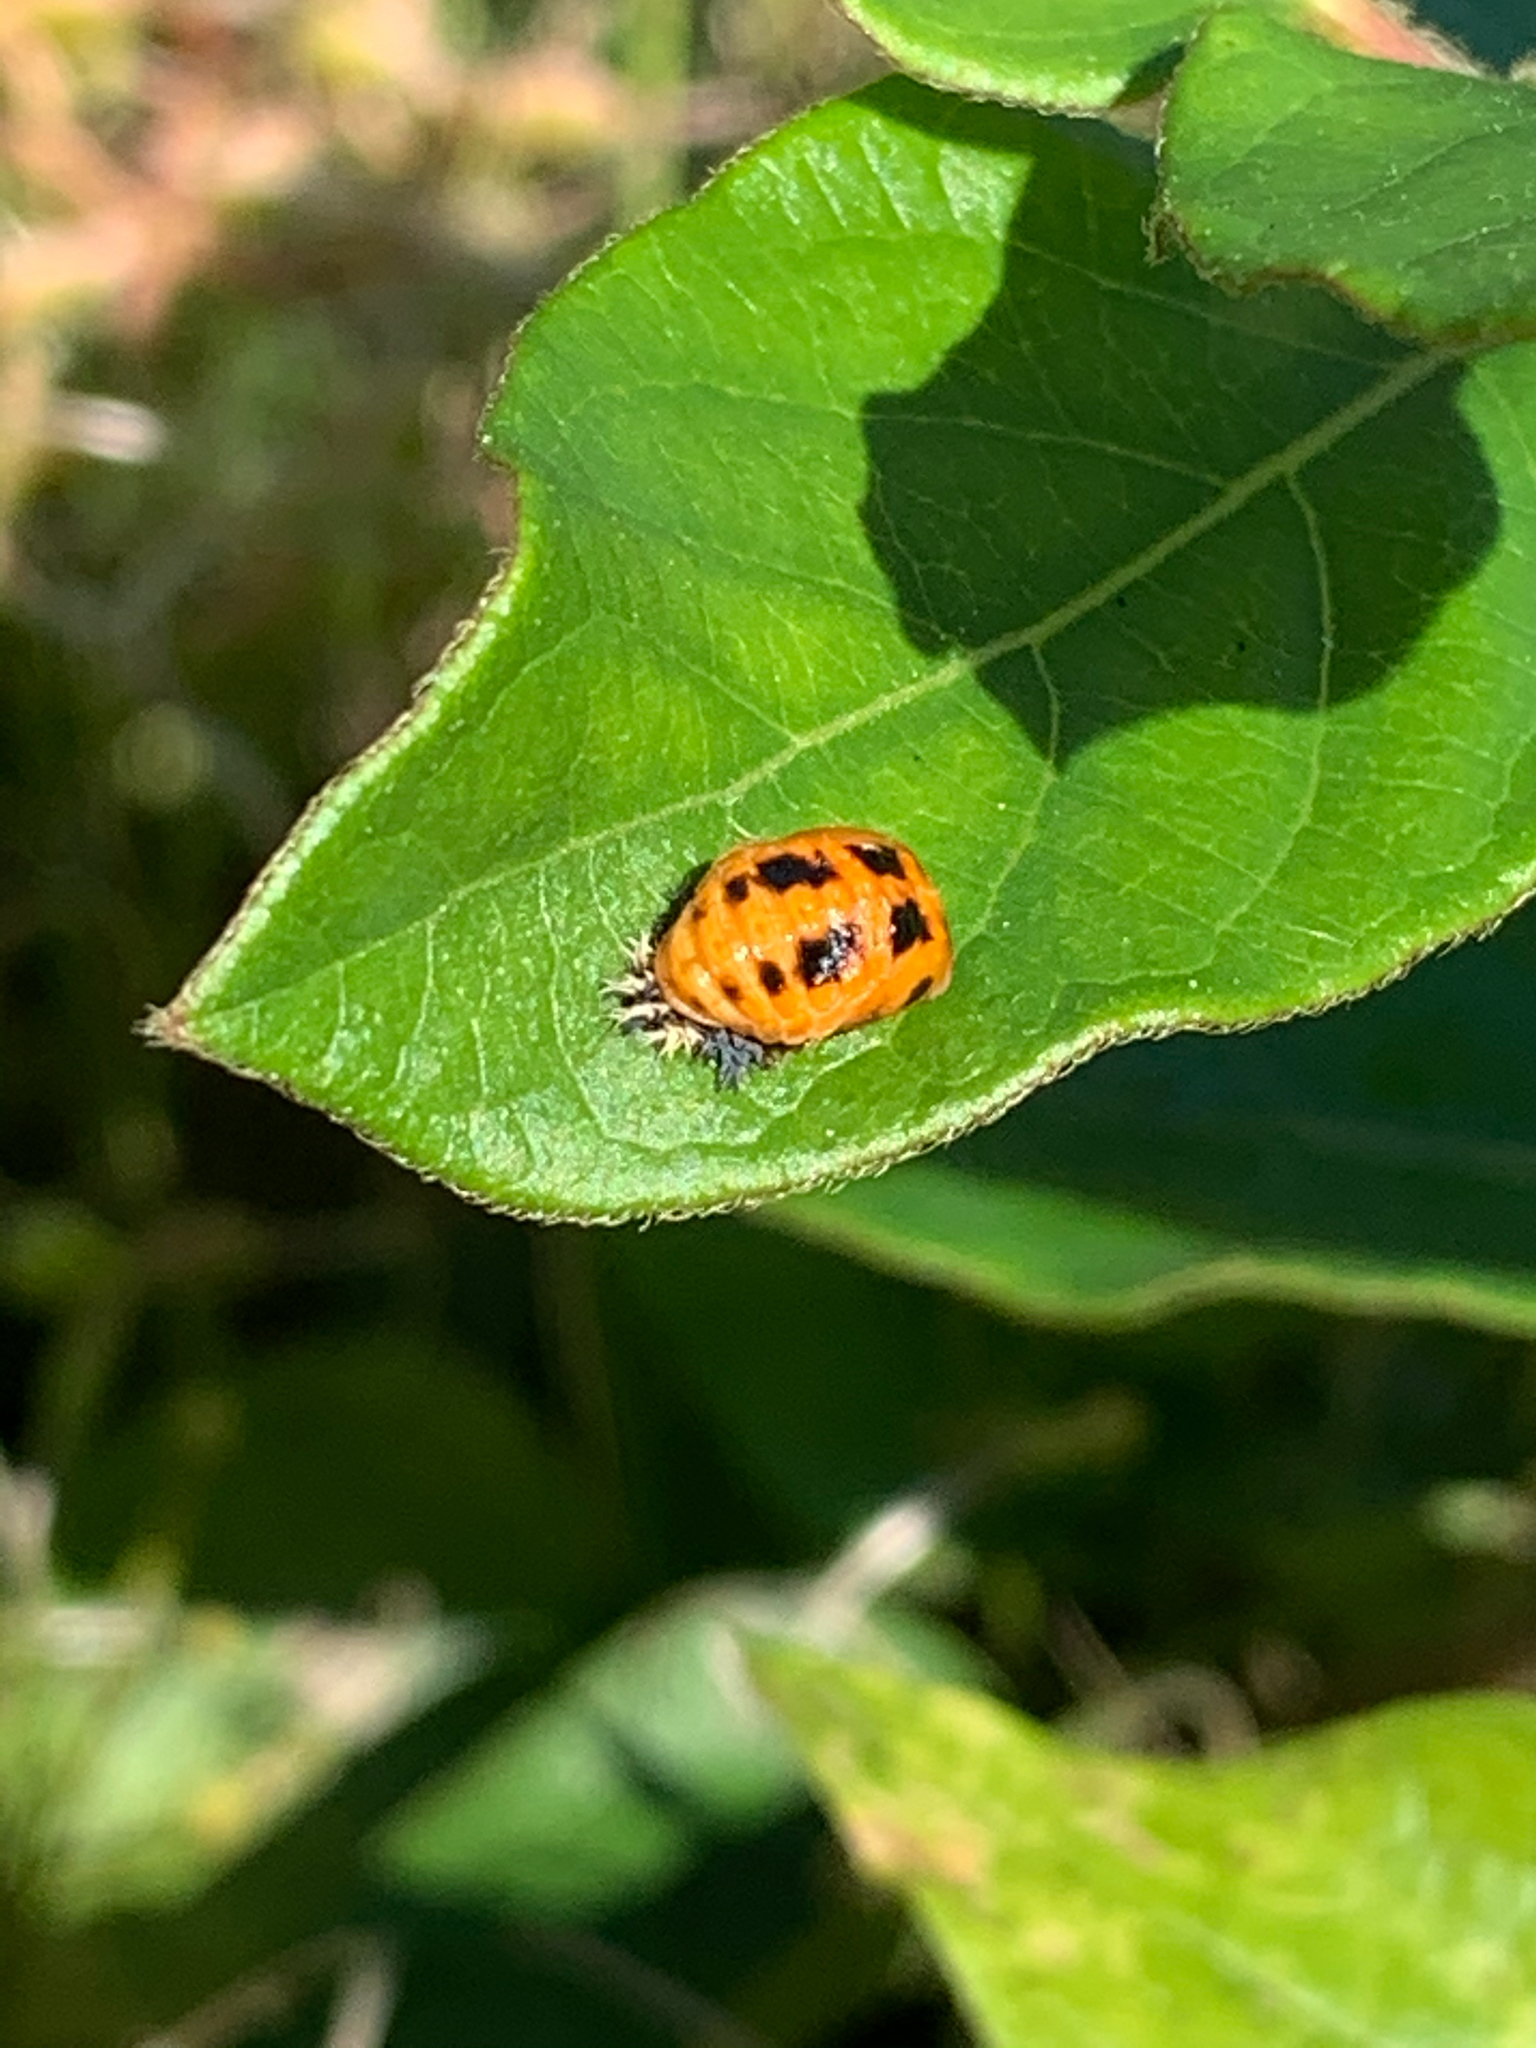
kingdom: Animalia
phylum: Arthropoda
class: Insecta
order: Coleoptera
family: Coccinellidae
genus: Harmonia
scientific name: Harmonia axyridis
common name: Harlequin ladybird
